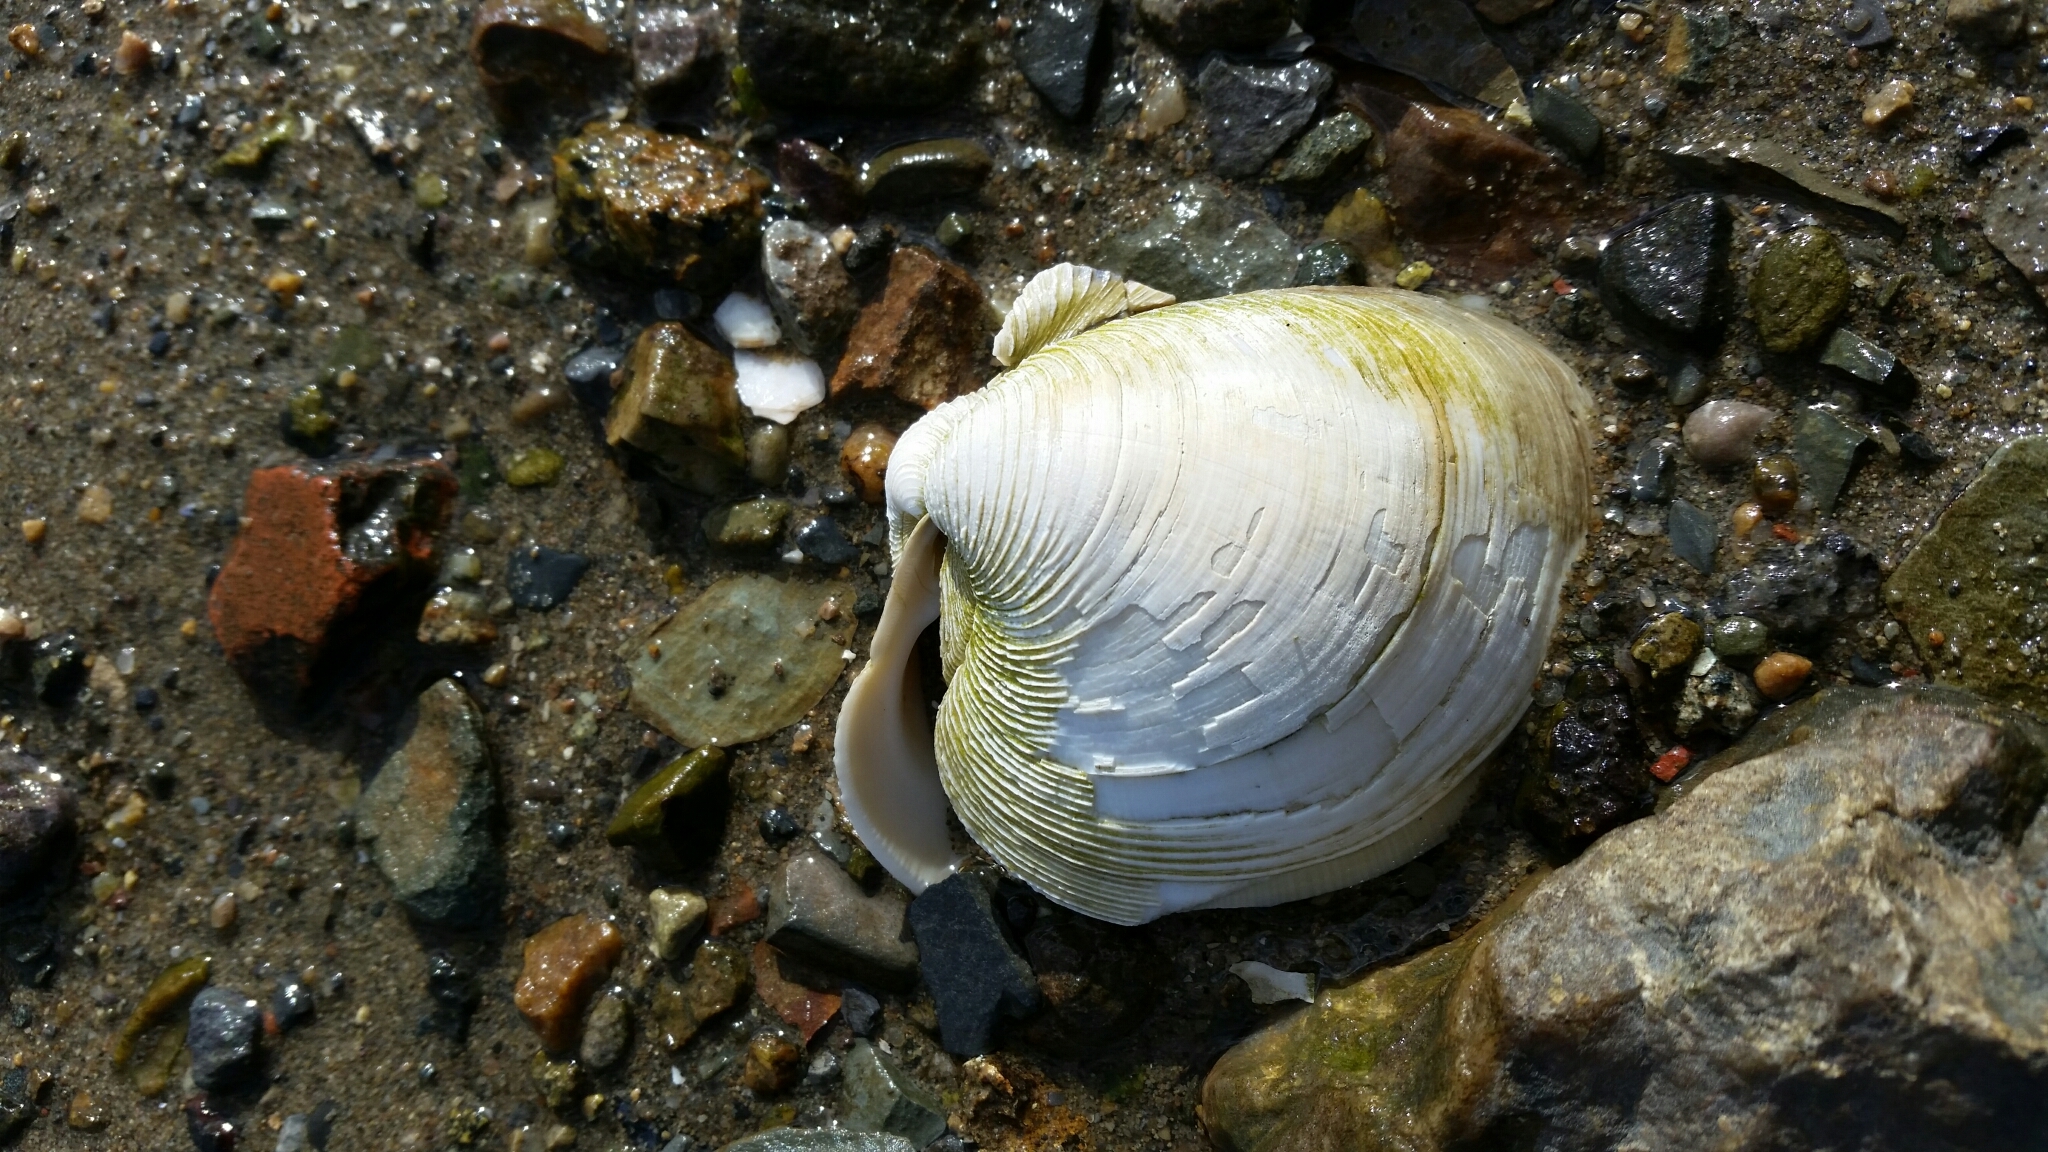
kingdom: Animalia
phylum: Mollusca
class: Bivalvia
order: Venerida
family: Veneridae
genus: Mercenaria
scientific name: Mercenaria mercenaria
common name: American hard-shelled clam
